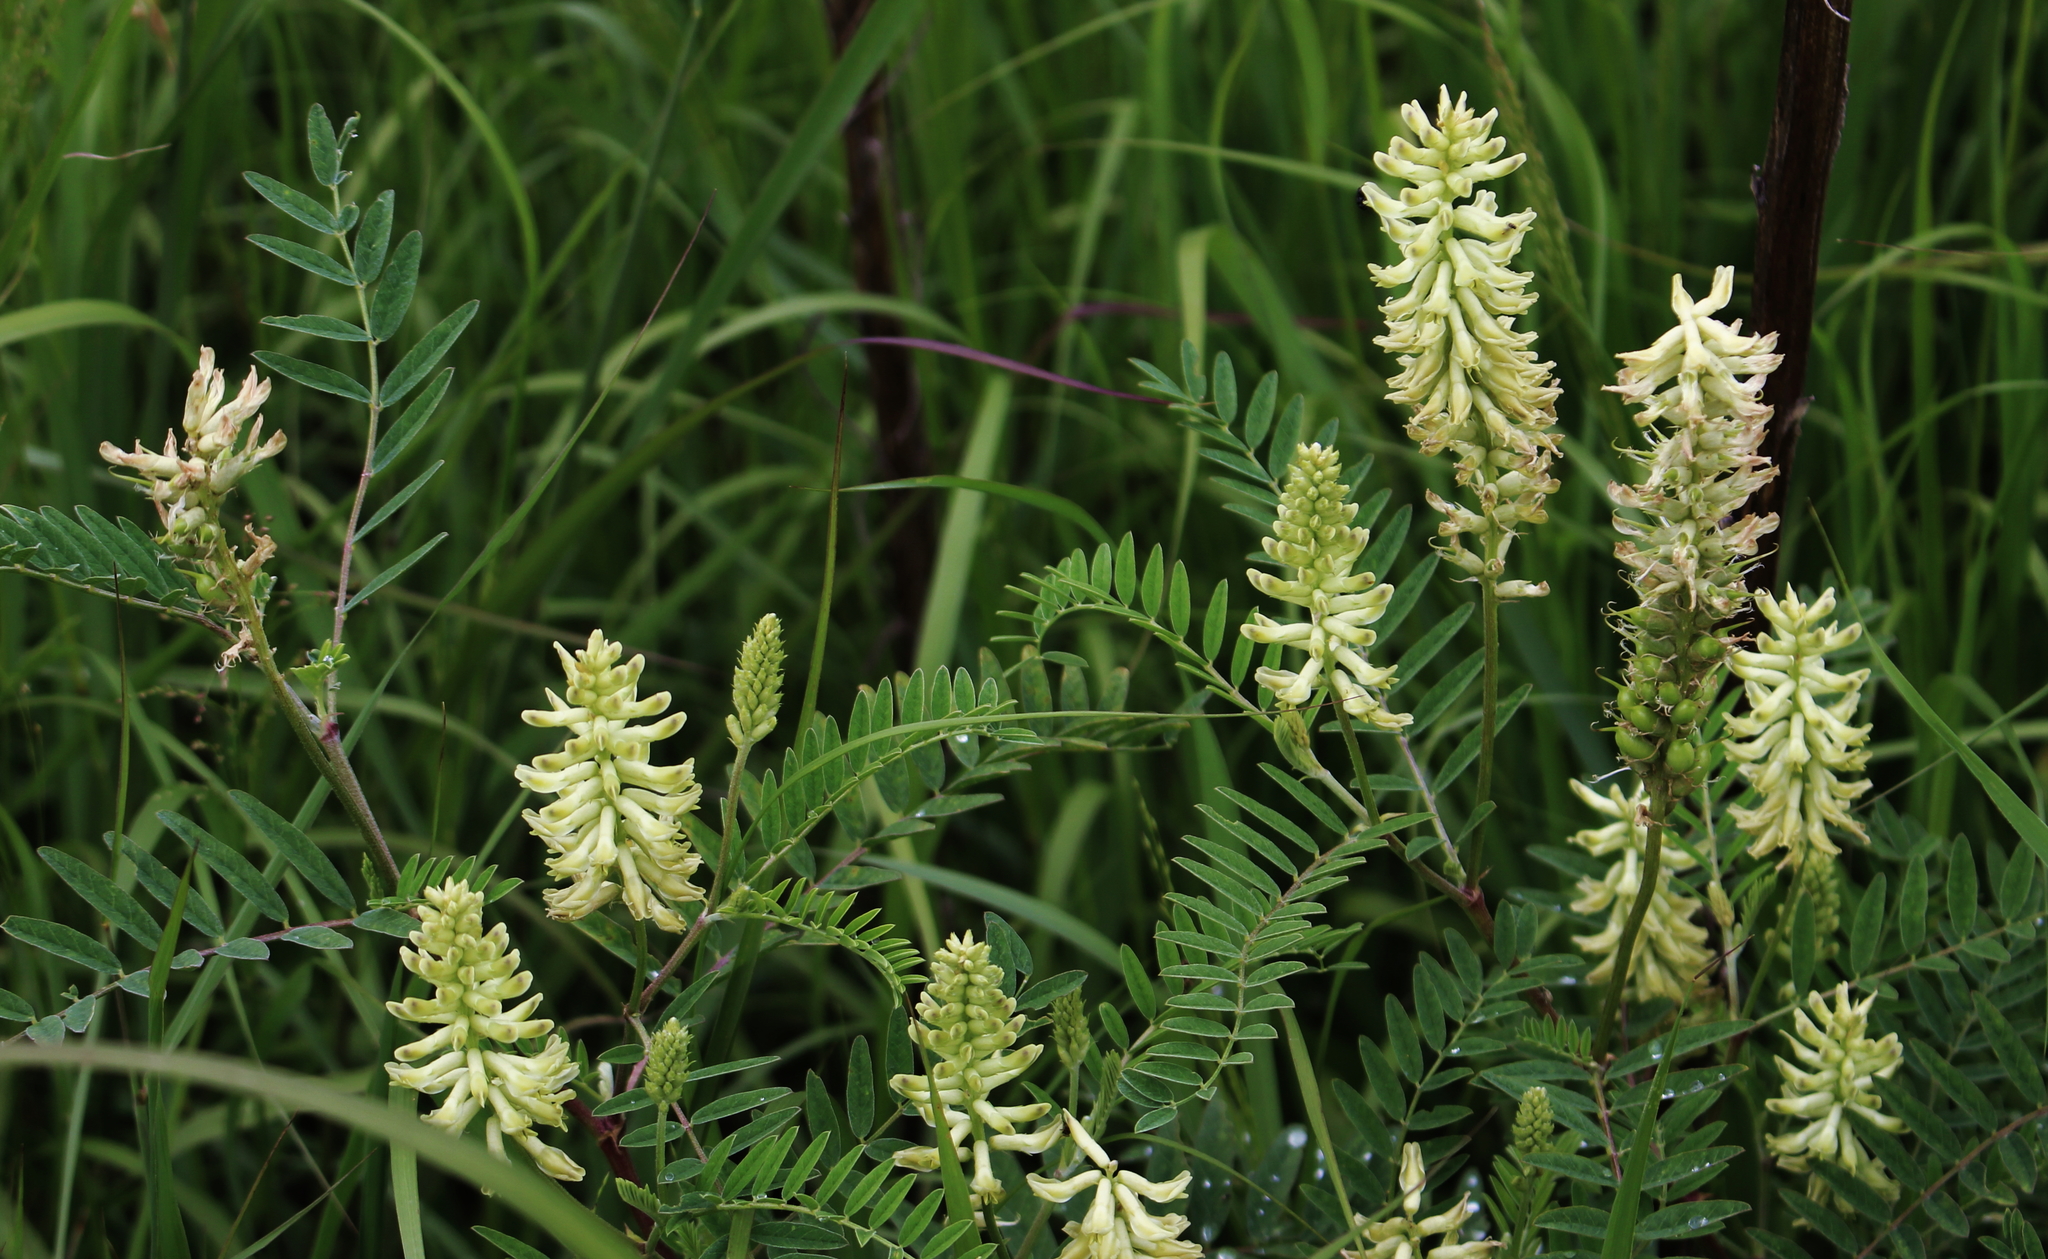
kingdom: Plantae
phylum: Tracheophyta
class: Magnoliopsida
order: Fabales
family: Fabaceae
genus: Astragalus
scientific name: Astragalus canadensis
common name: Canada milk-vetch
